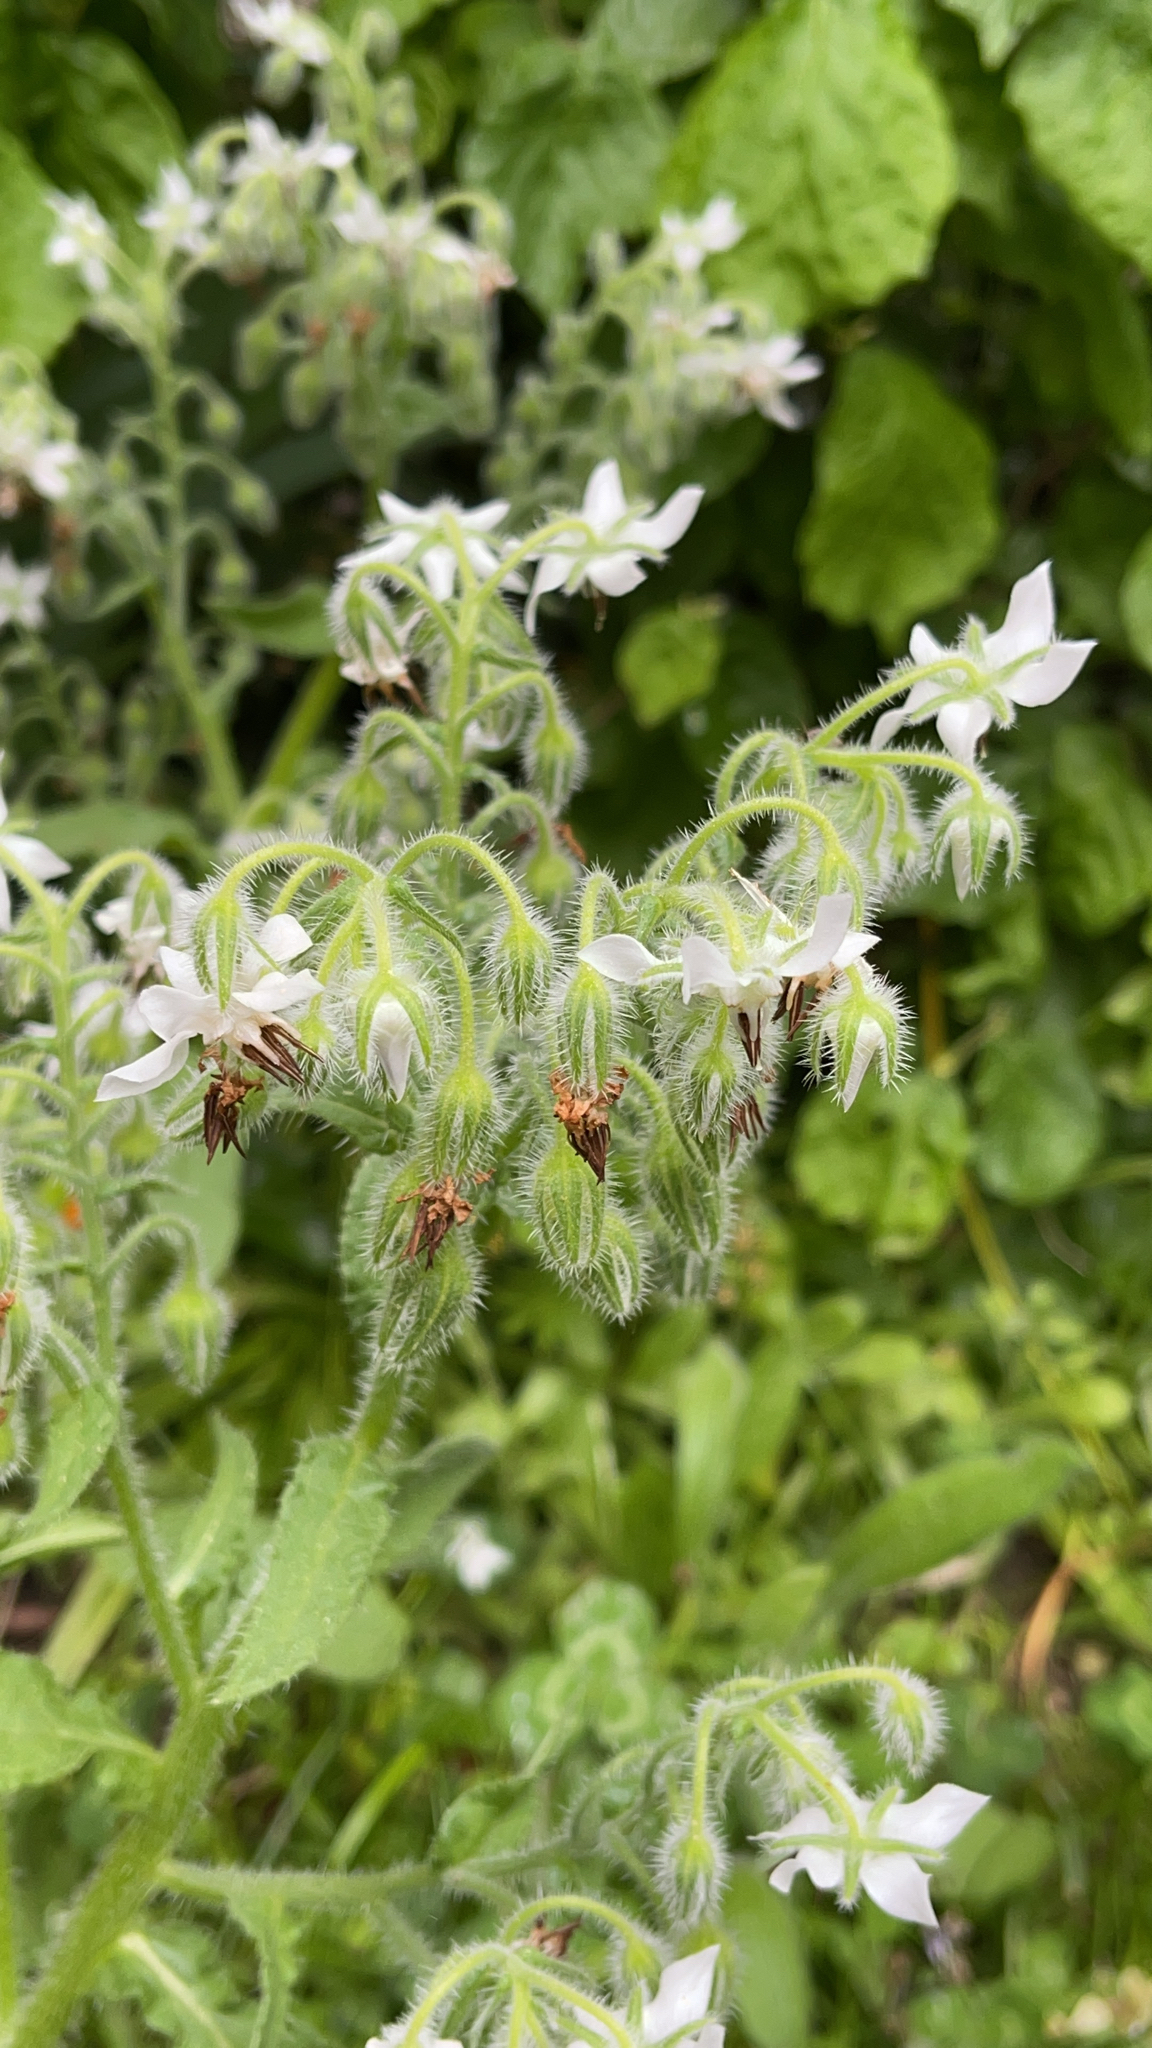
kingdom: Plantae
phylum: Tracheophyta
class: Magnoliopsida
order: Boraginales
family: Boraginaceae
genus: Borago
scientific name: Borago officinalis
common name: Borage
